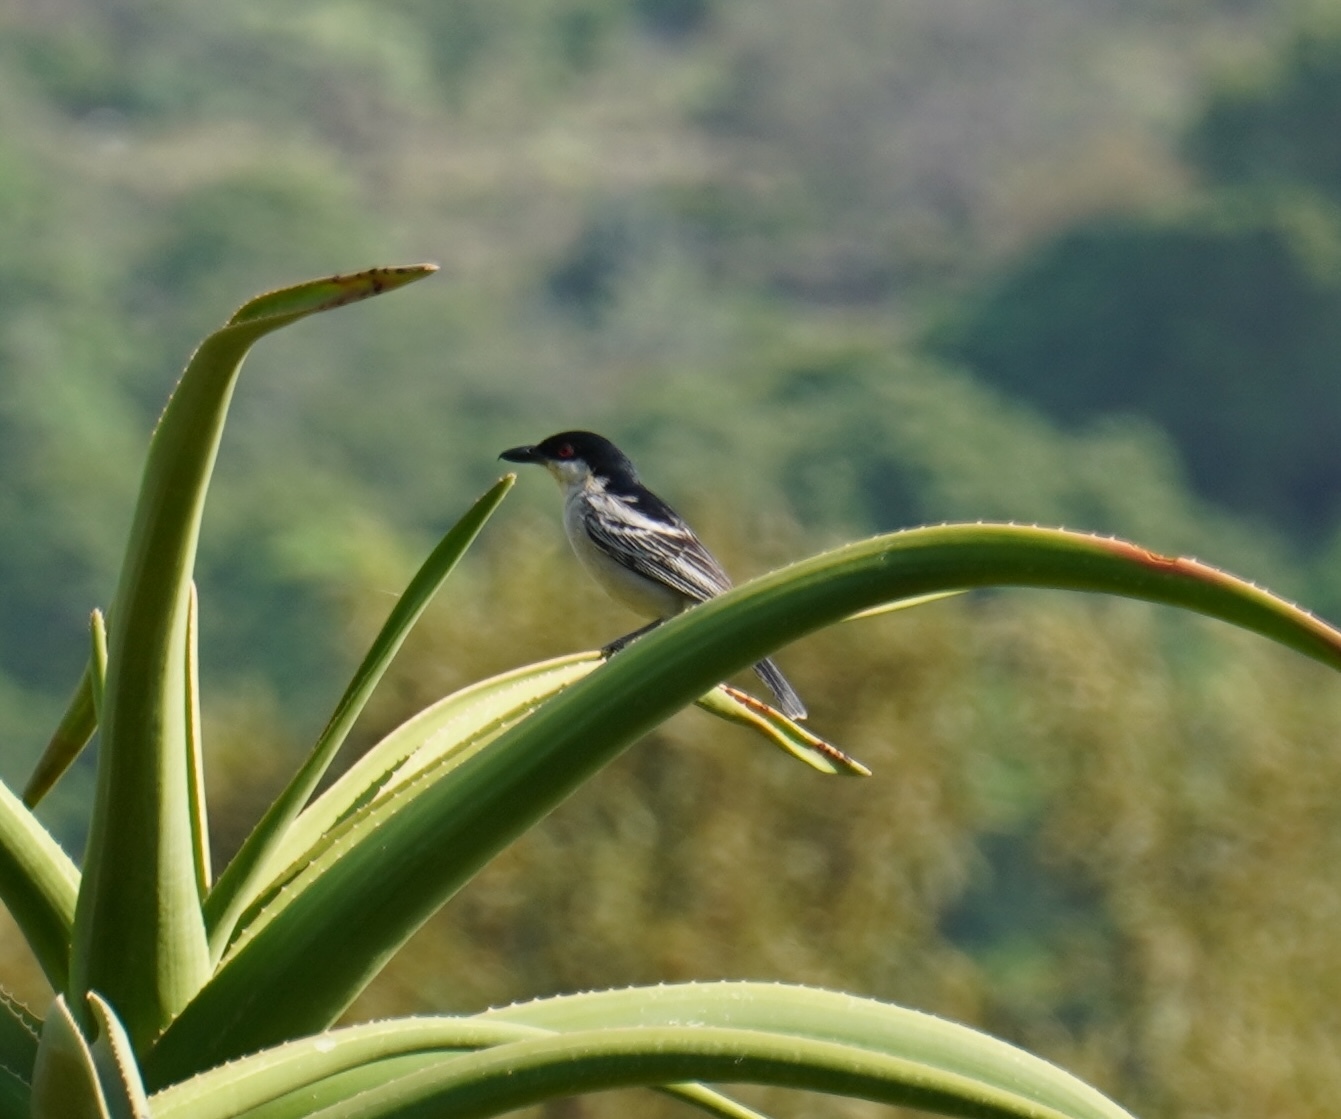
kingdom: Animalia
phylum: Chordata
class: Aves
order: Passeriformes
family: Malaconotidae
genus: Dryoscopus
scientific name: Dryoscopus cubla
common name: Black-backed puffback
